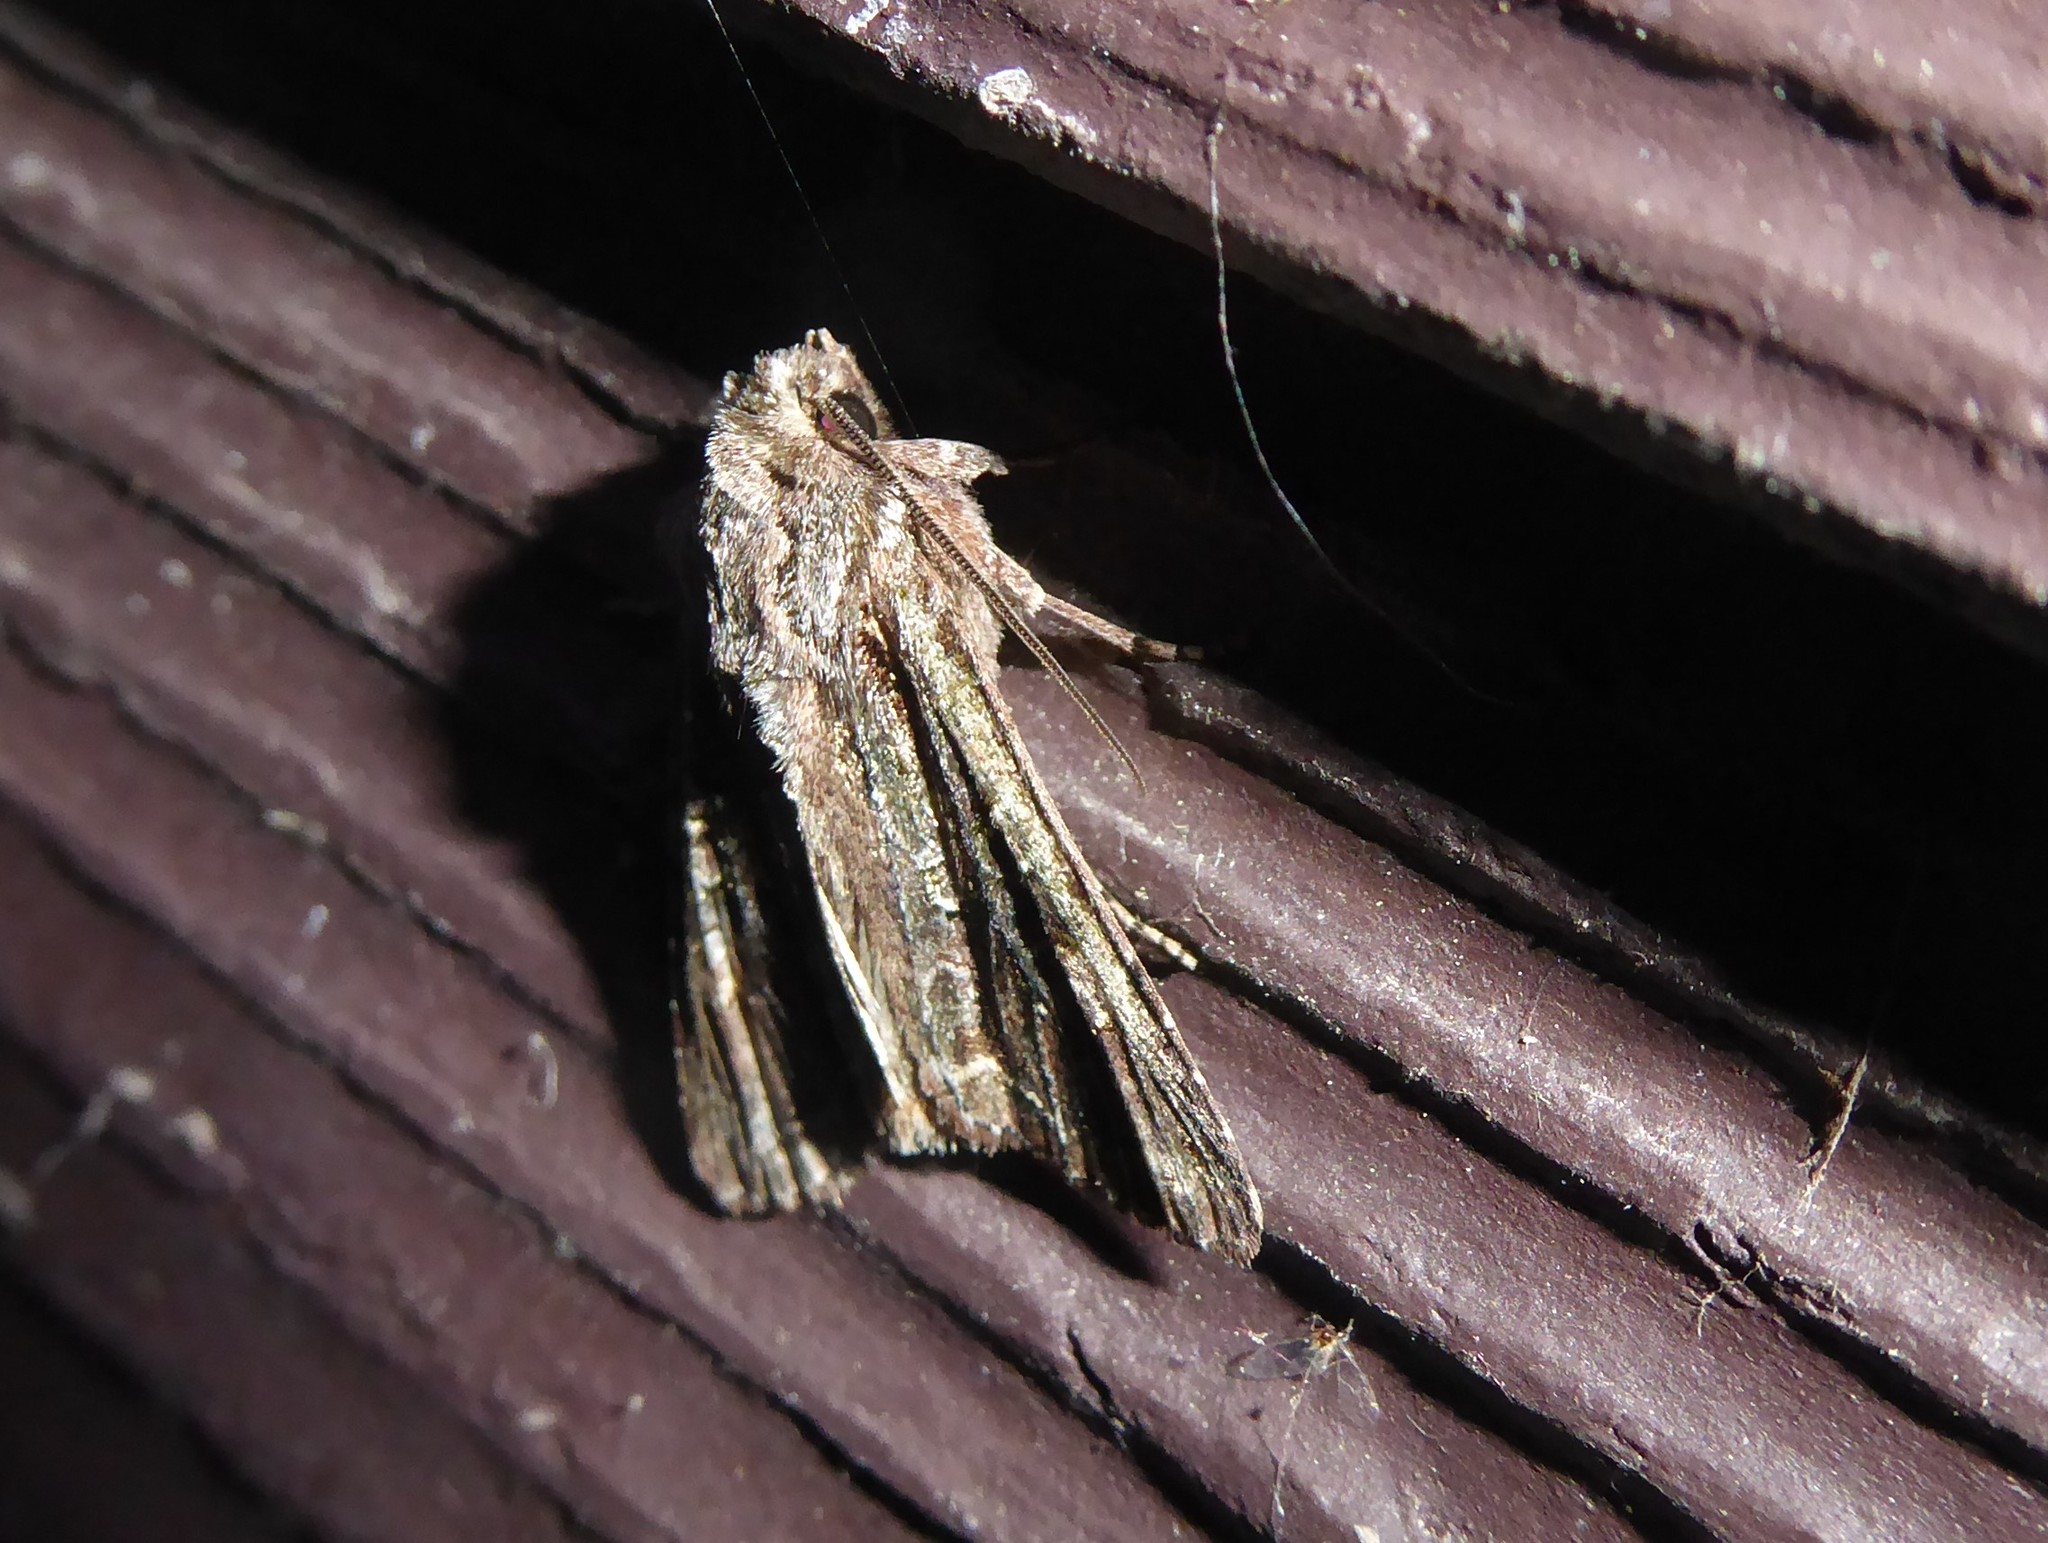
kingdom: Animalia
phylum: Arthropoda
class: Insecta
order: Lepidoptera
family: Noctuidae
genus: Ichneutica
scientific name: Ichneutica mutans
